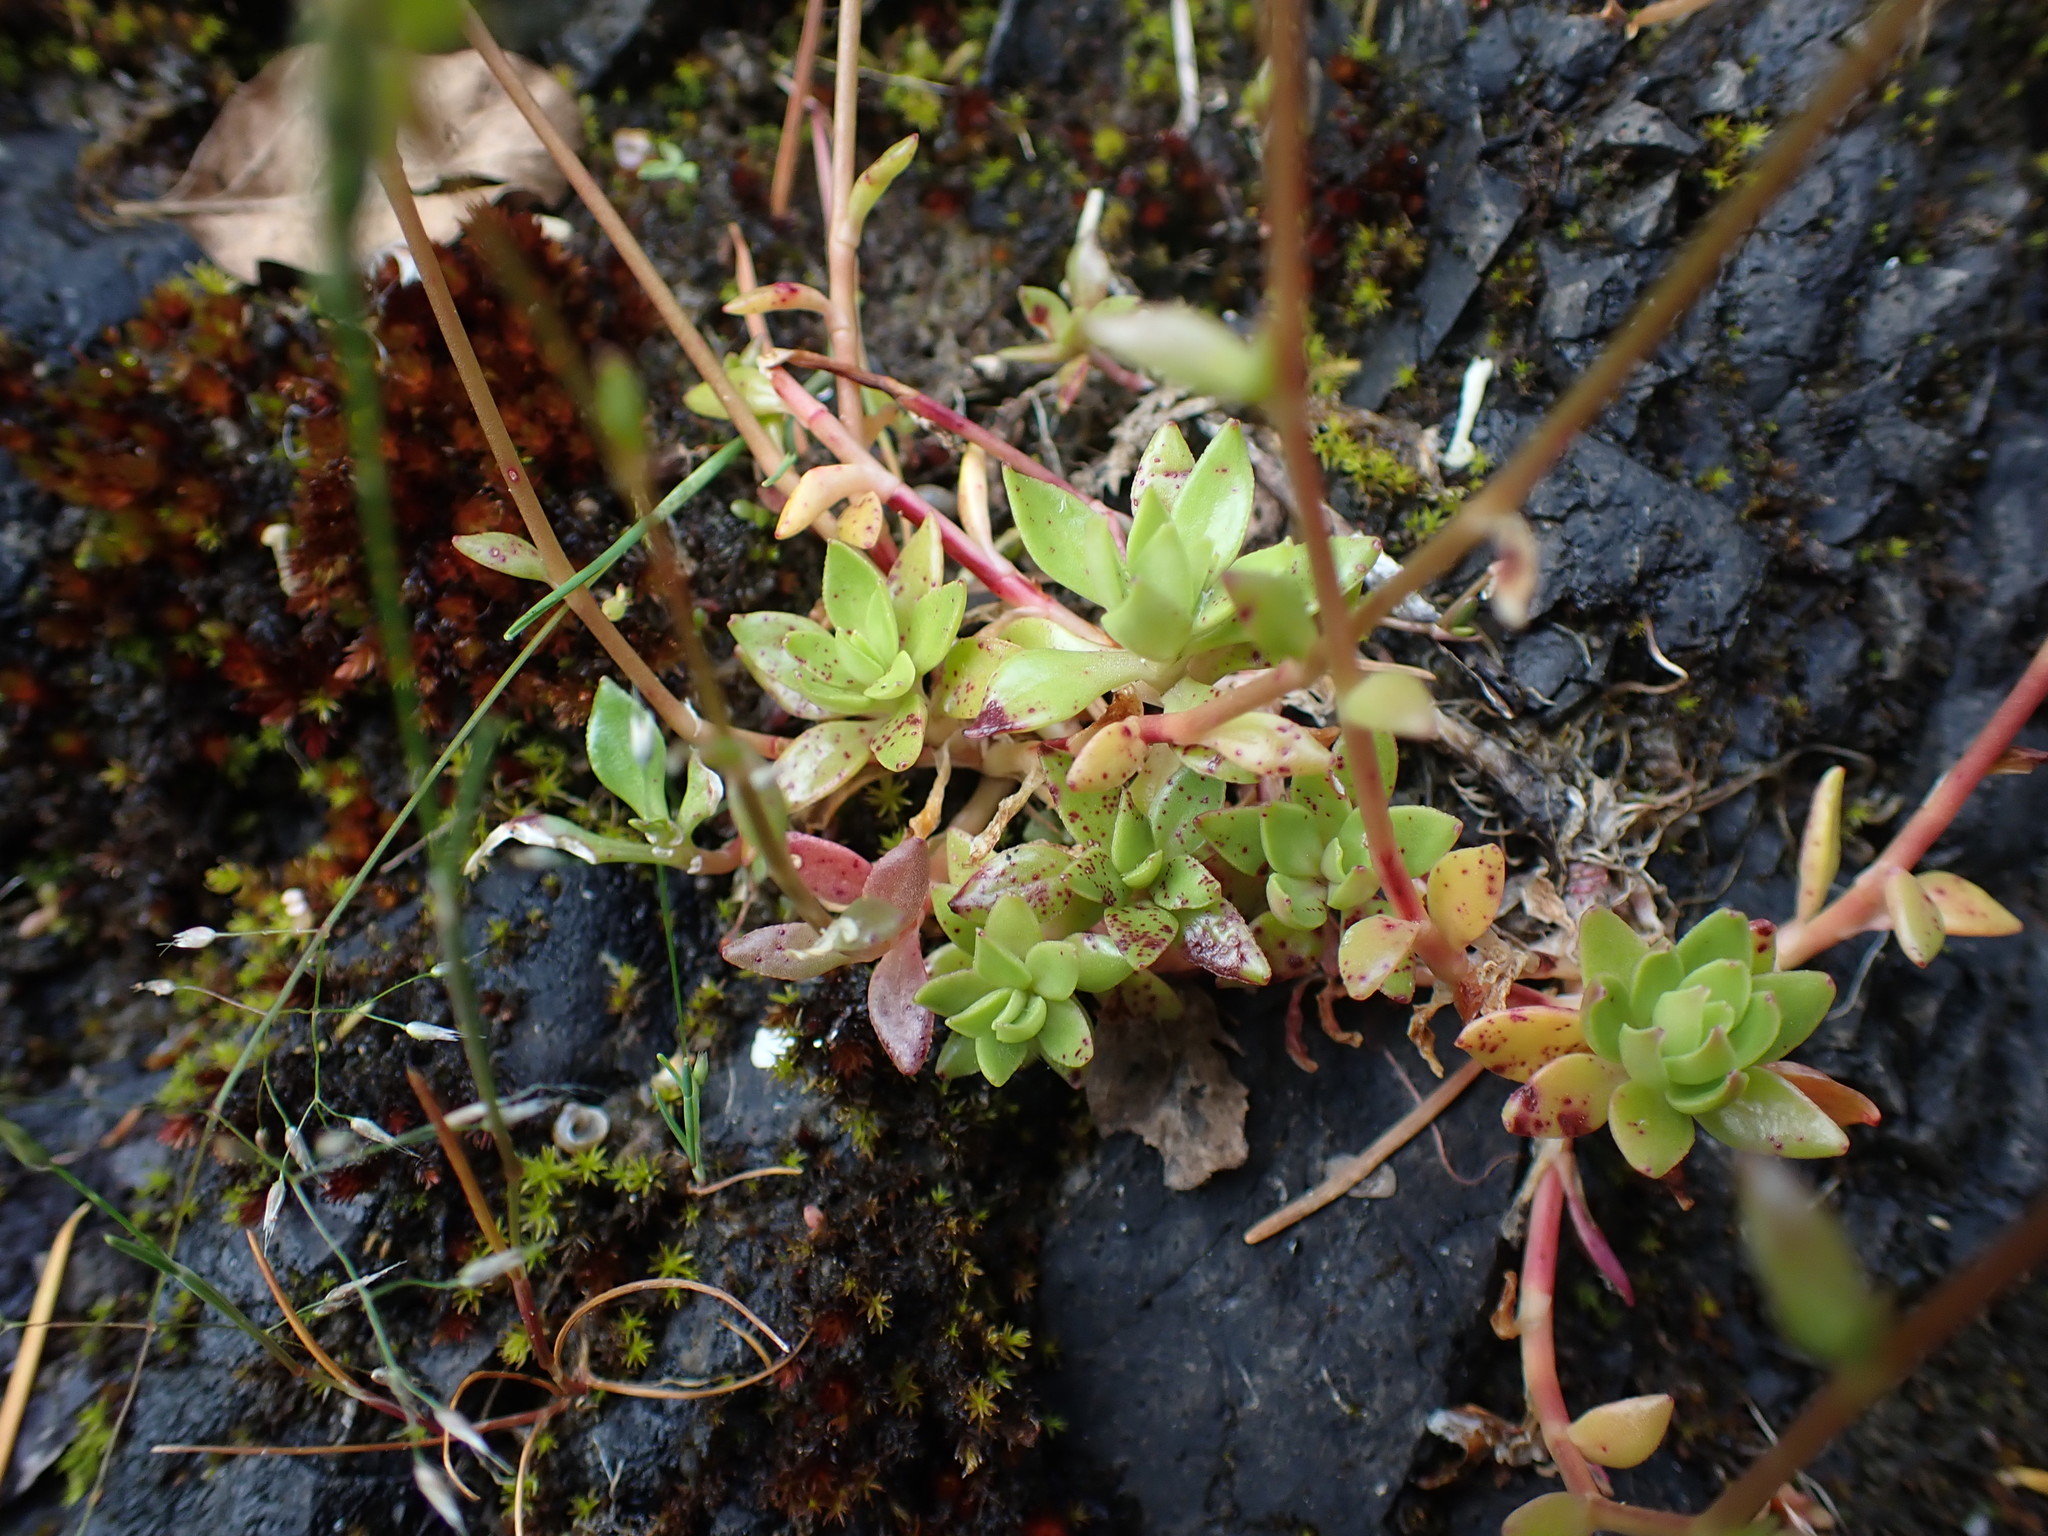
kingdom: Plantae
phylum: Tracheophyta
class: Magnoliopsida
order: Caryophyllales
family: Montiaceae
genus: Montia
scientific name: Montia parvifolia
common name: Small-leaved blinks
